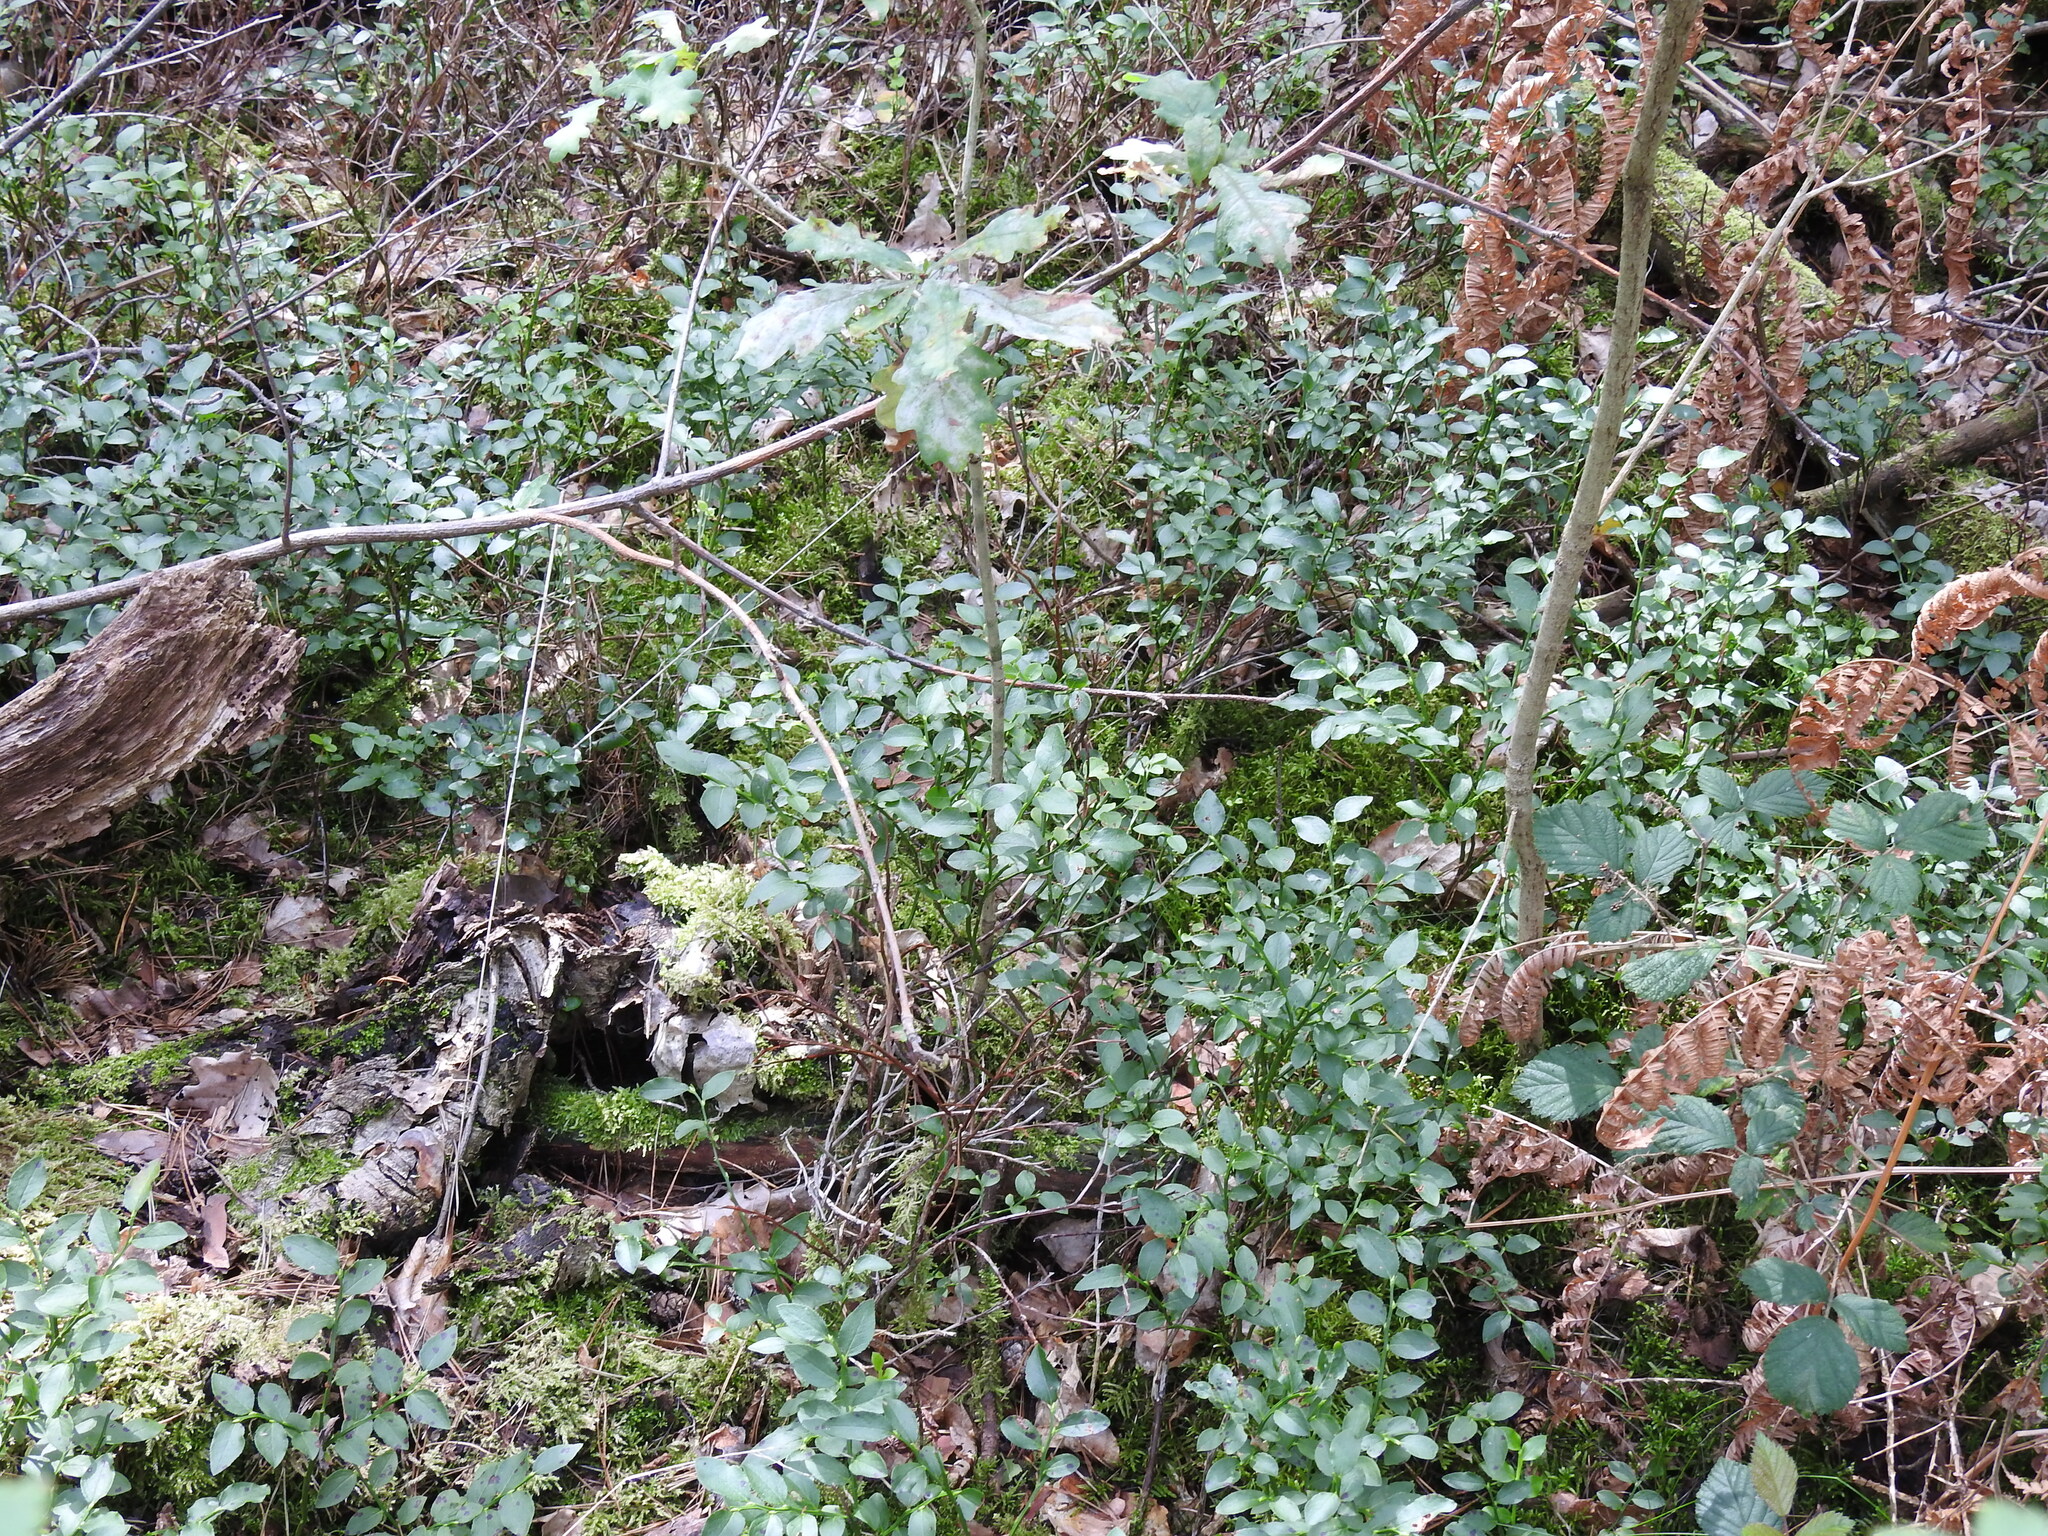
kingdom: Plantae
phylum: Tracheophyta
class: Magnoliopsida
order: Ericales
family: Ericaceae
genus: Vaccinium
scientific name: Vaccinium myrtillus
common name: Bilberry
